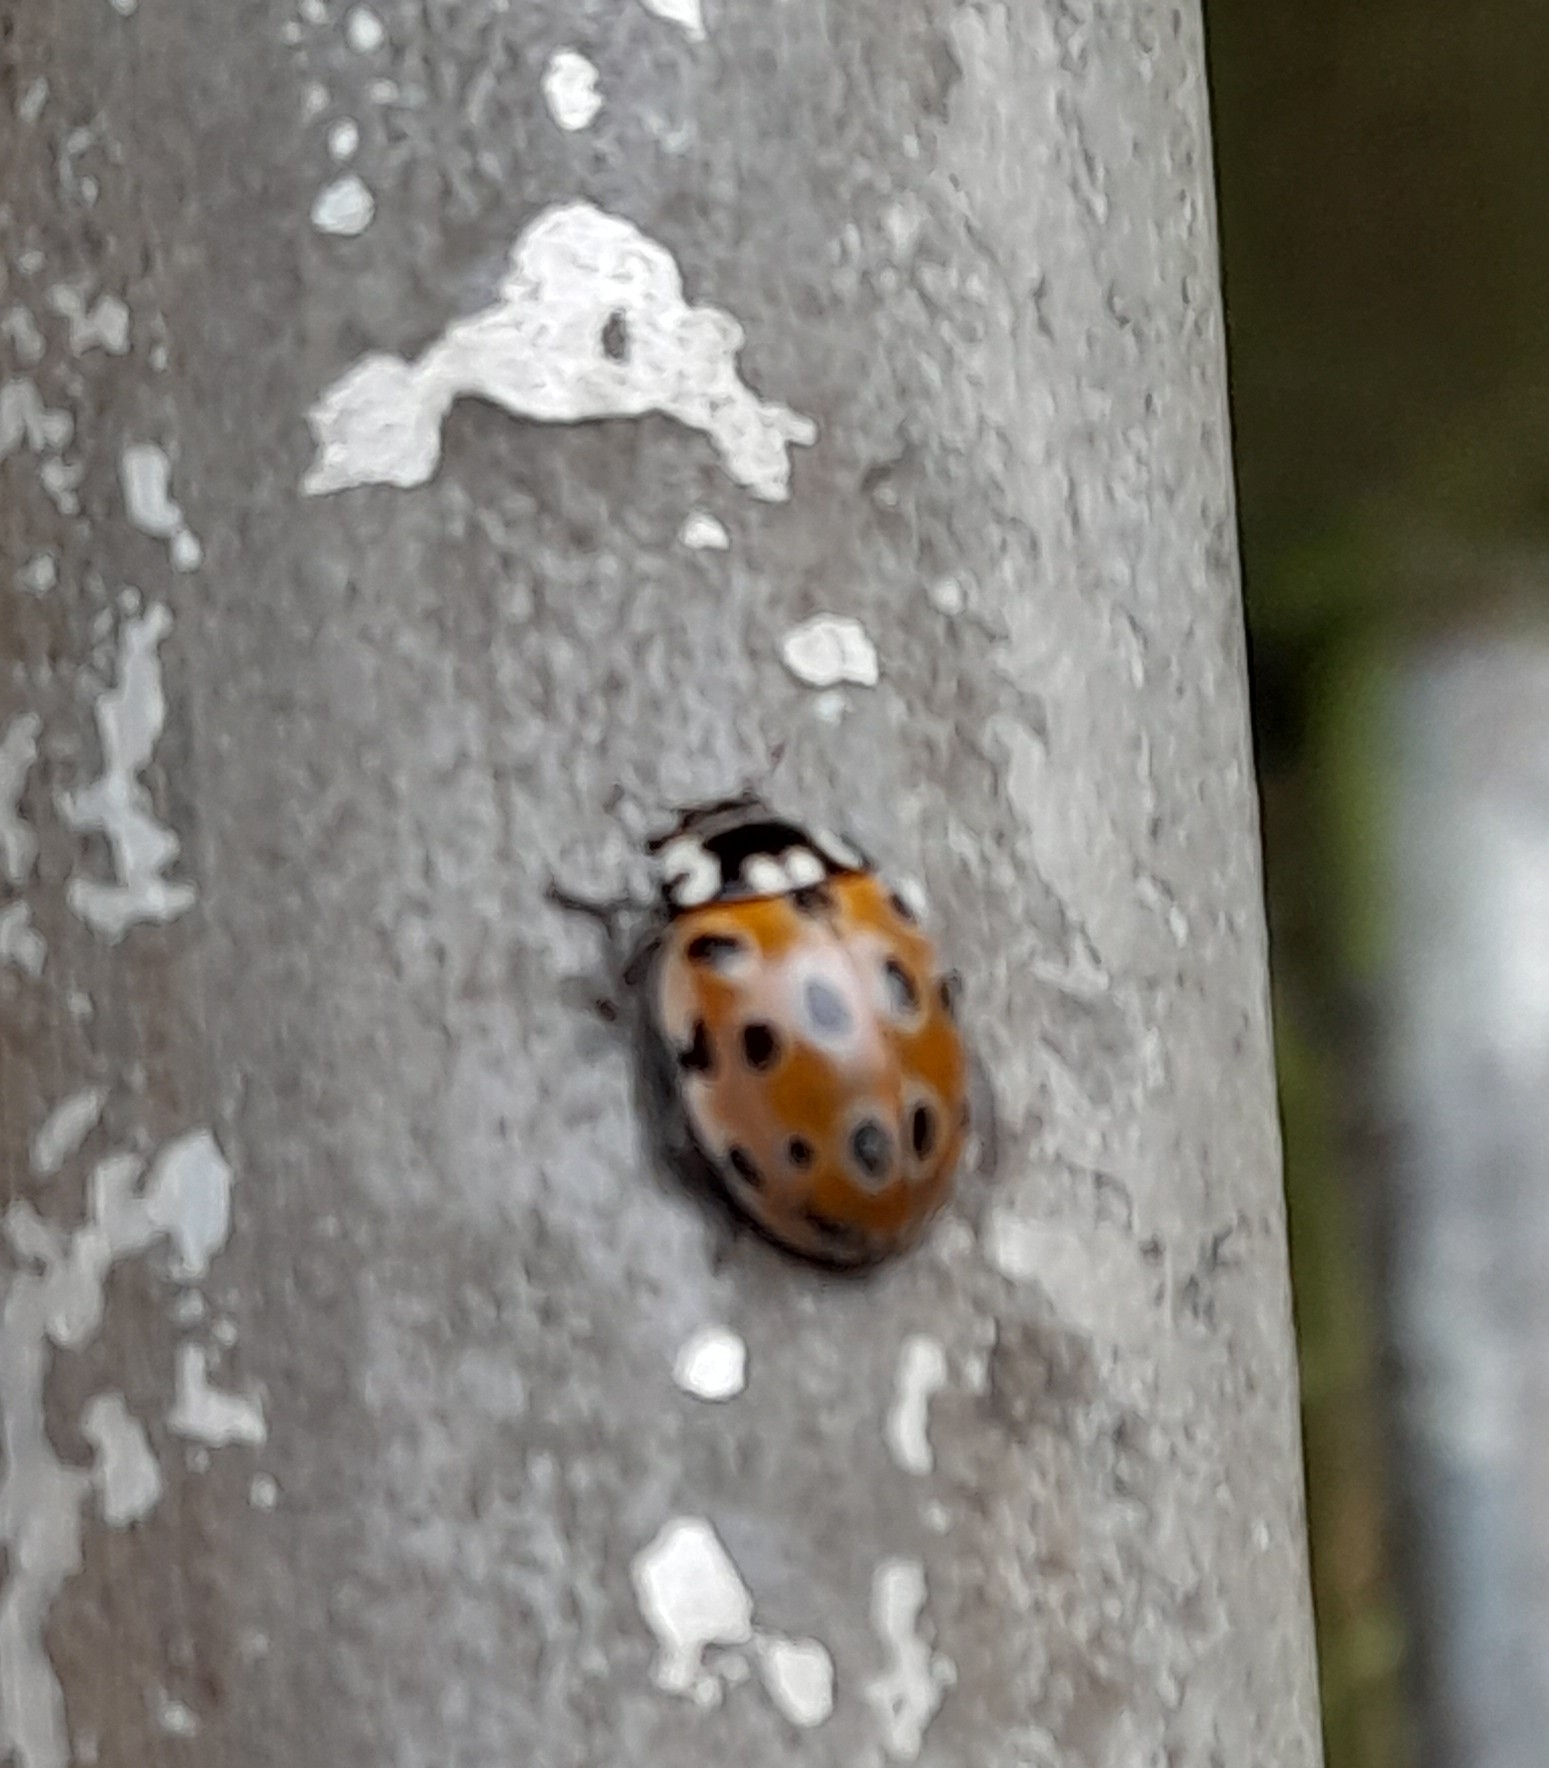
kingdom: Animalia
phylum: Arthropoda
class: Insecta
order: Coleoptera
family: Coccinellidae
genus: Anatis
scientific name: Anatis ocellata
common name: Eyed ladybird
